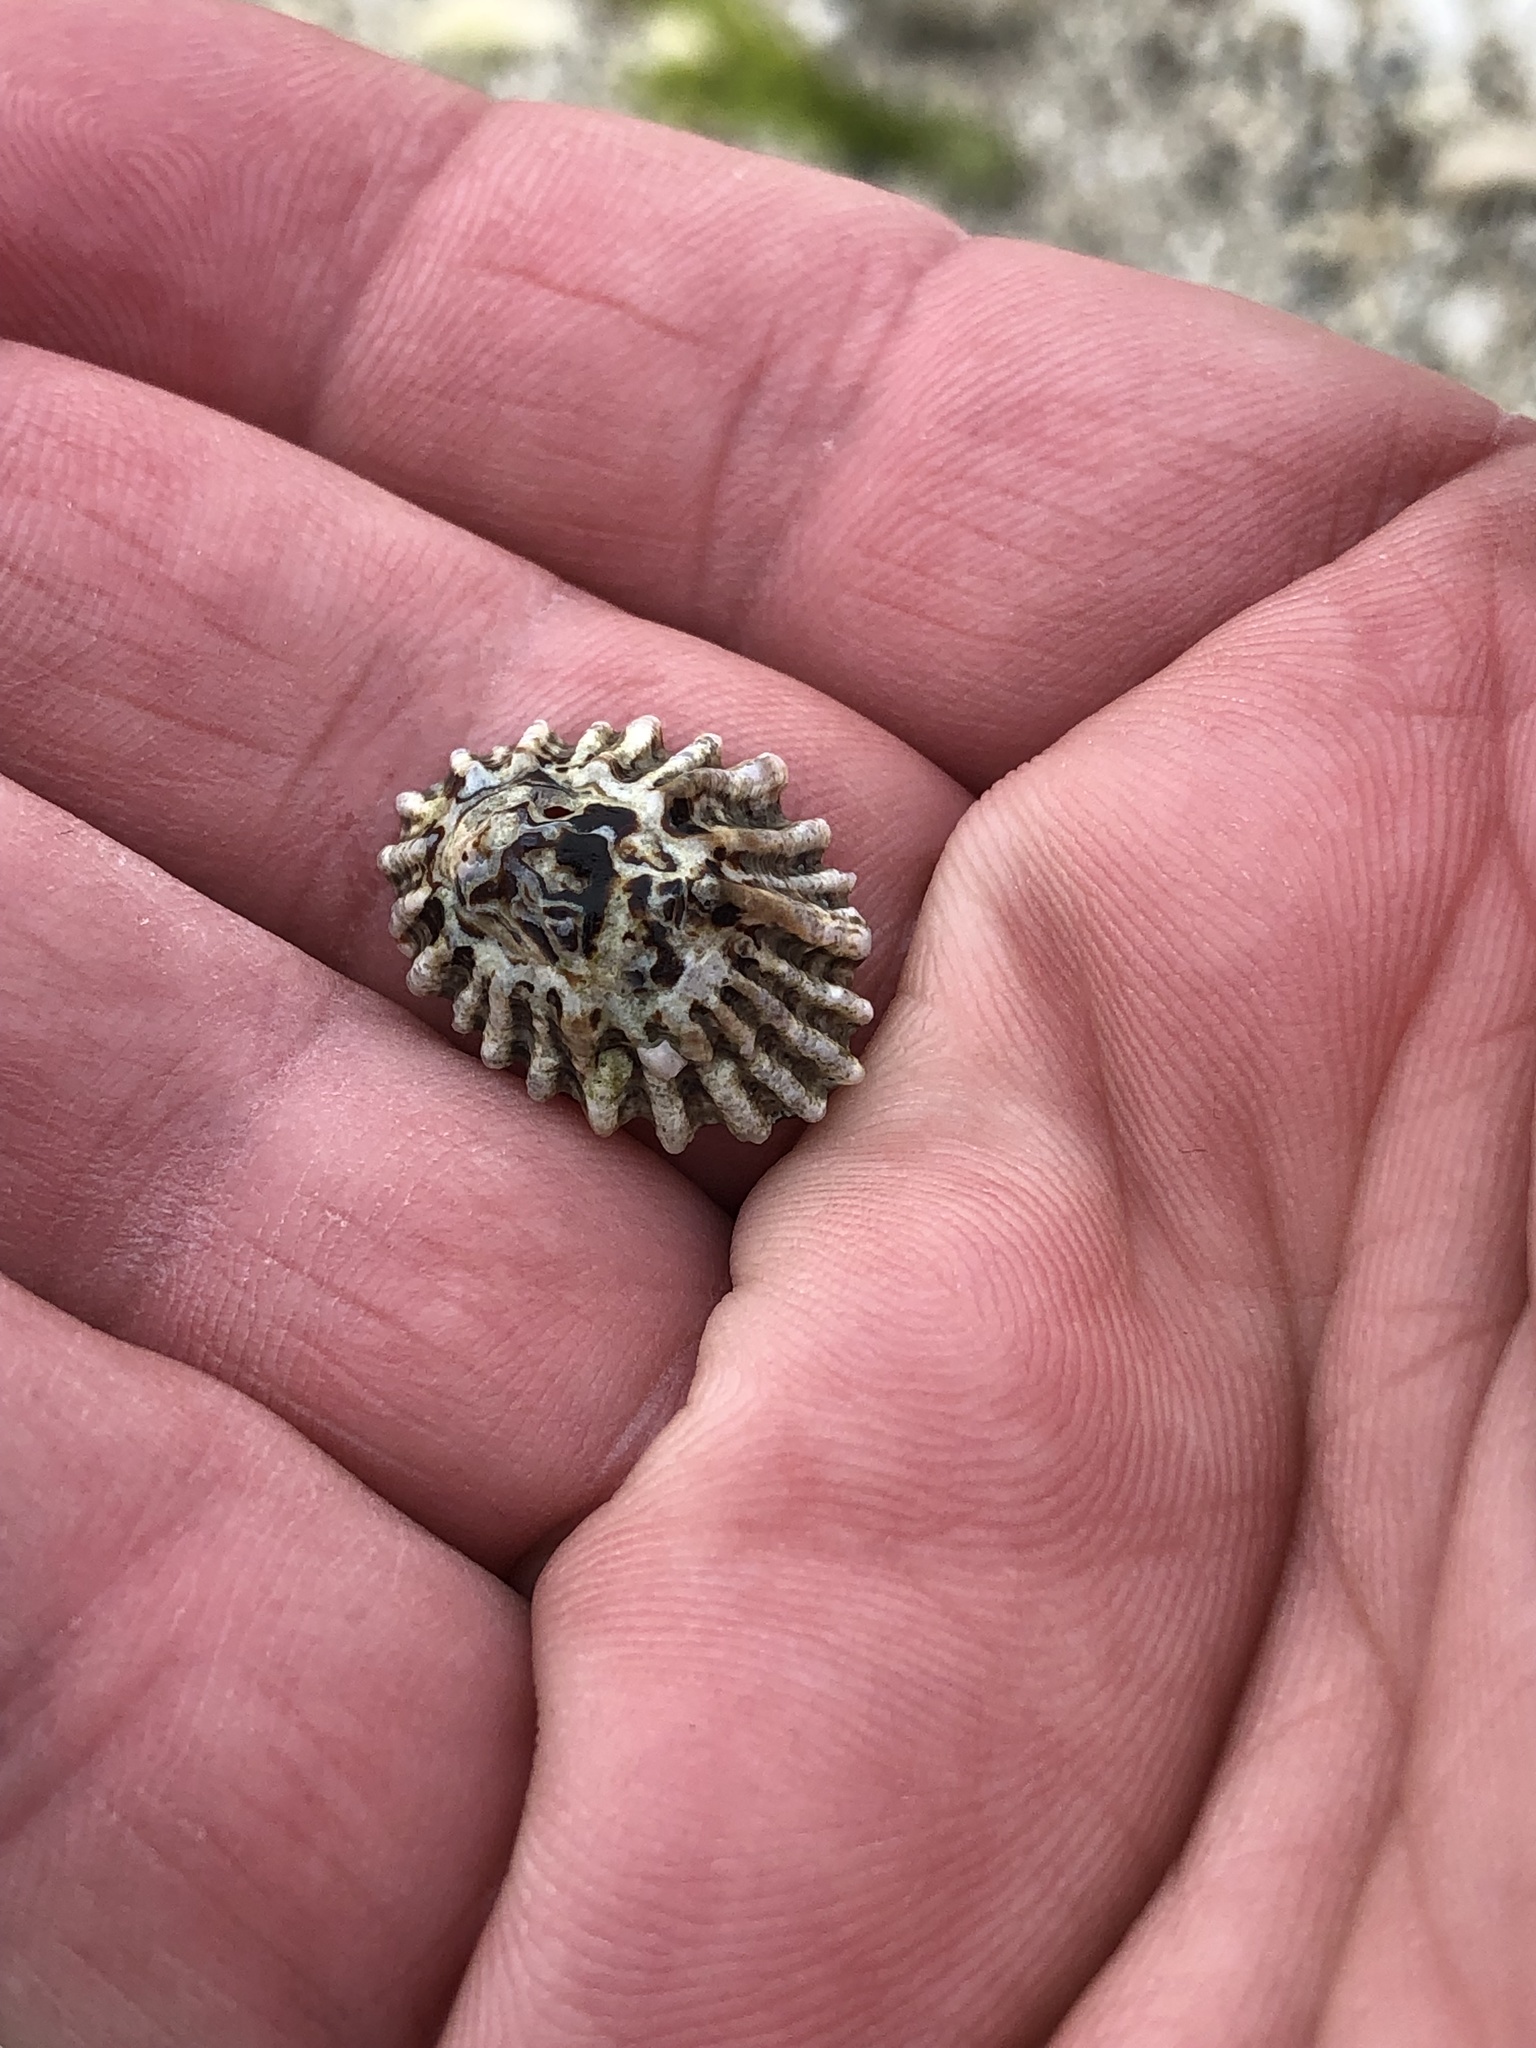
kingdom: Animalia
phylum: Mollusca
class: Gastropoda
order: Siphonariida
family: Siphonariidae
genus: Siphonaria
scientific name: Siphonaria australis
